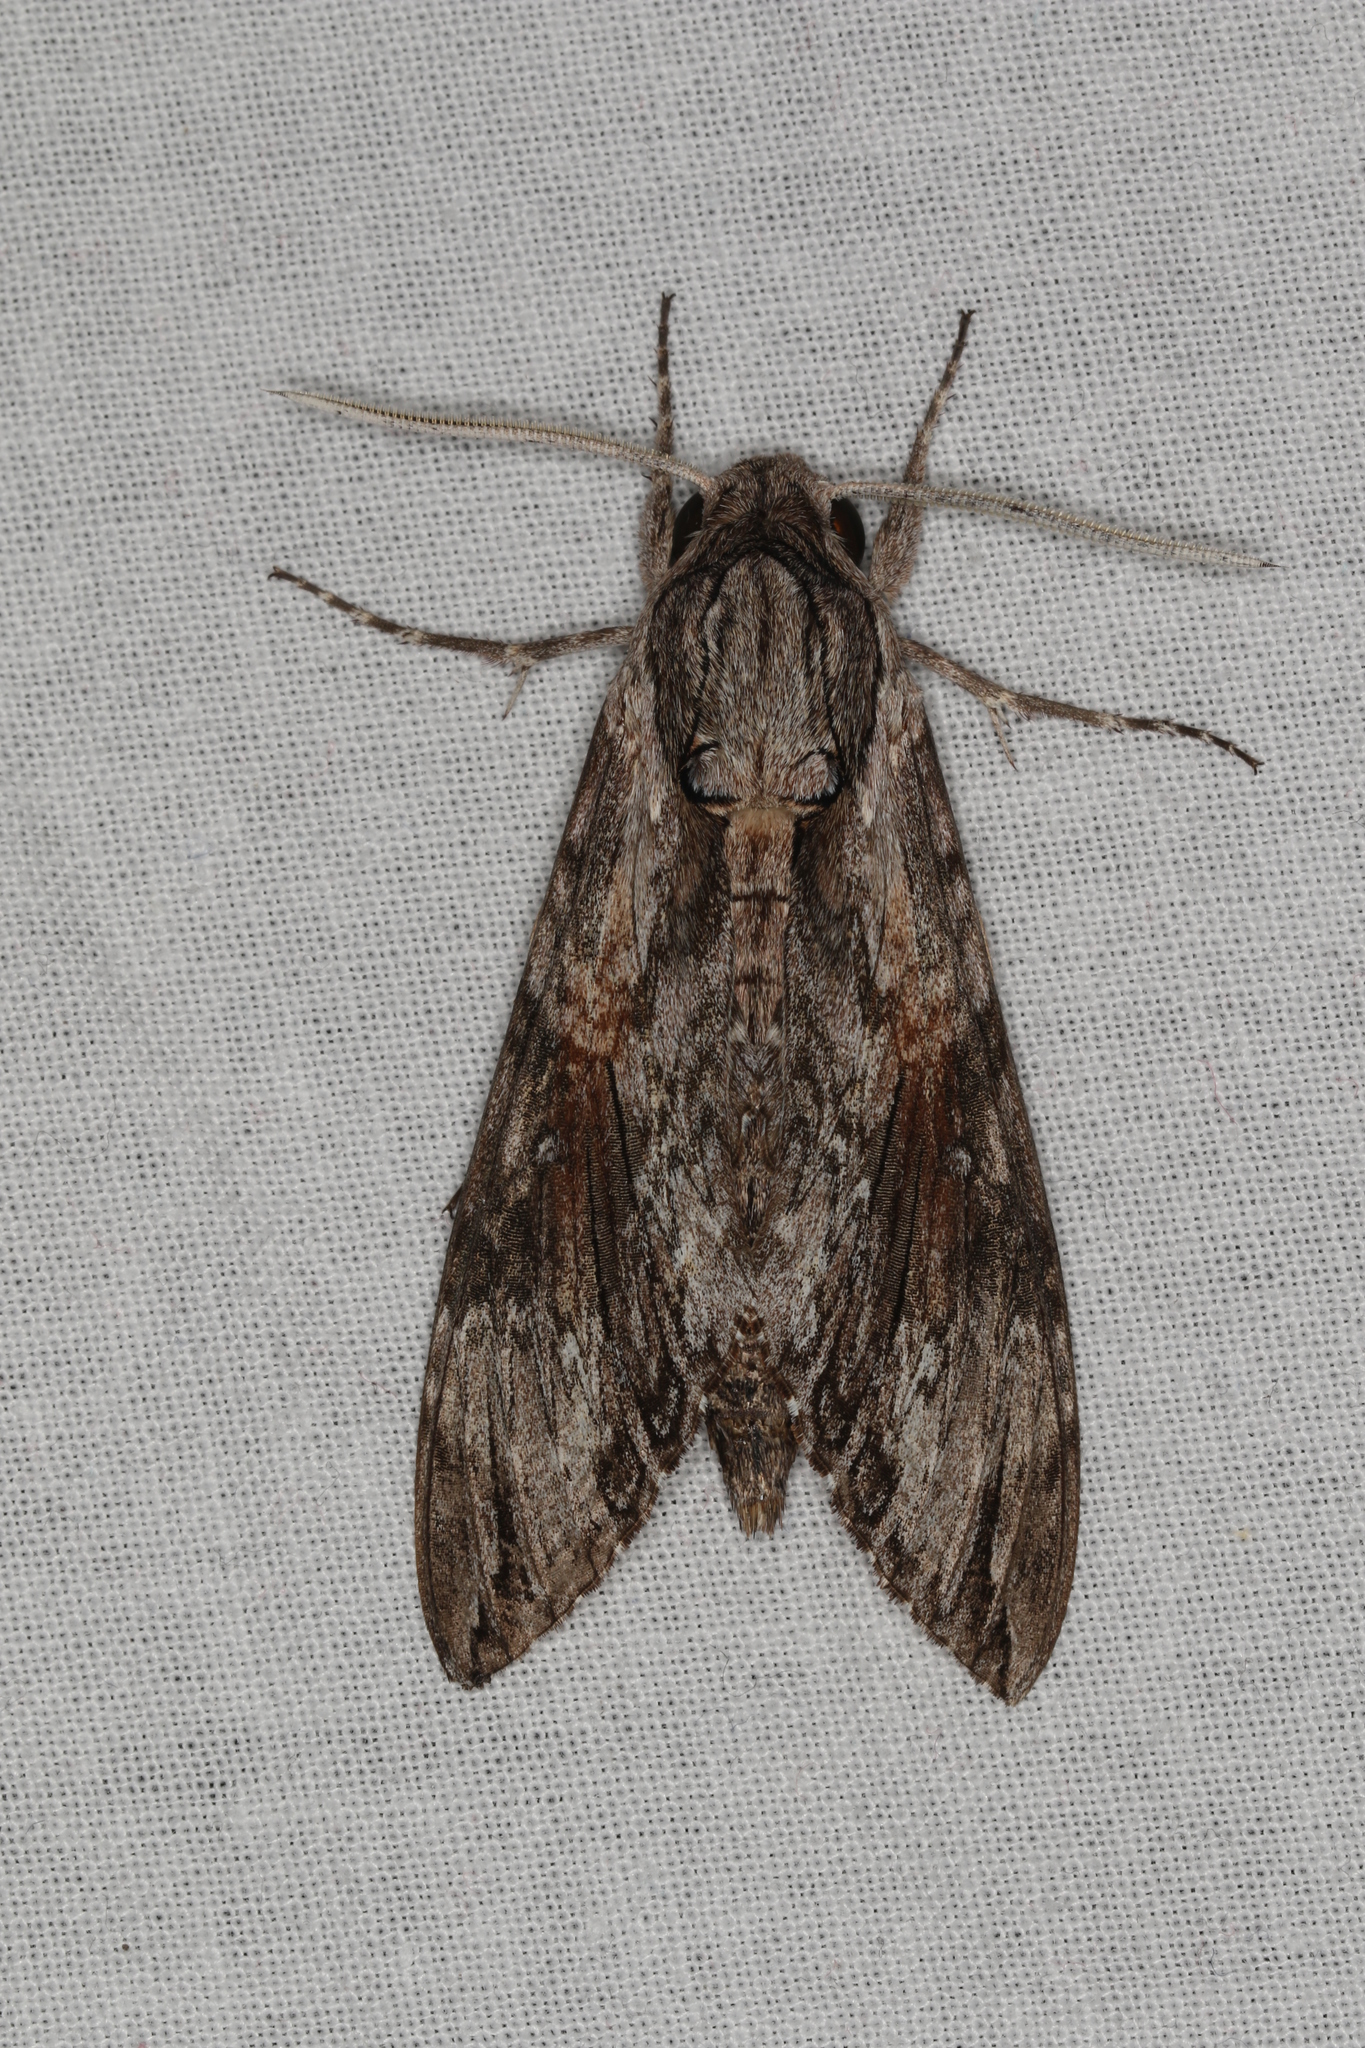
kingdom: Animalia
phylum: Arthropoda
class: Insecta
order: Lepidoptera
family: Sphingidae
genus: Agrius
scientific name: Agrius convolvuli
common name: Convolvulus hawkmoth
